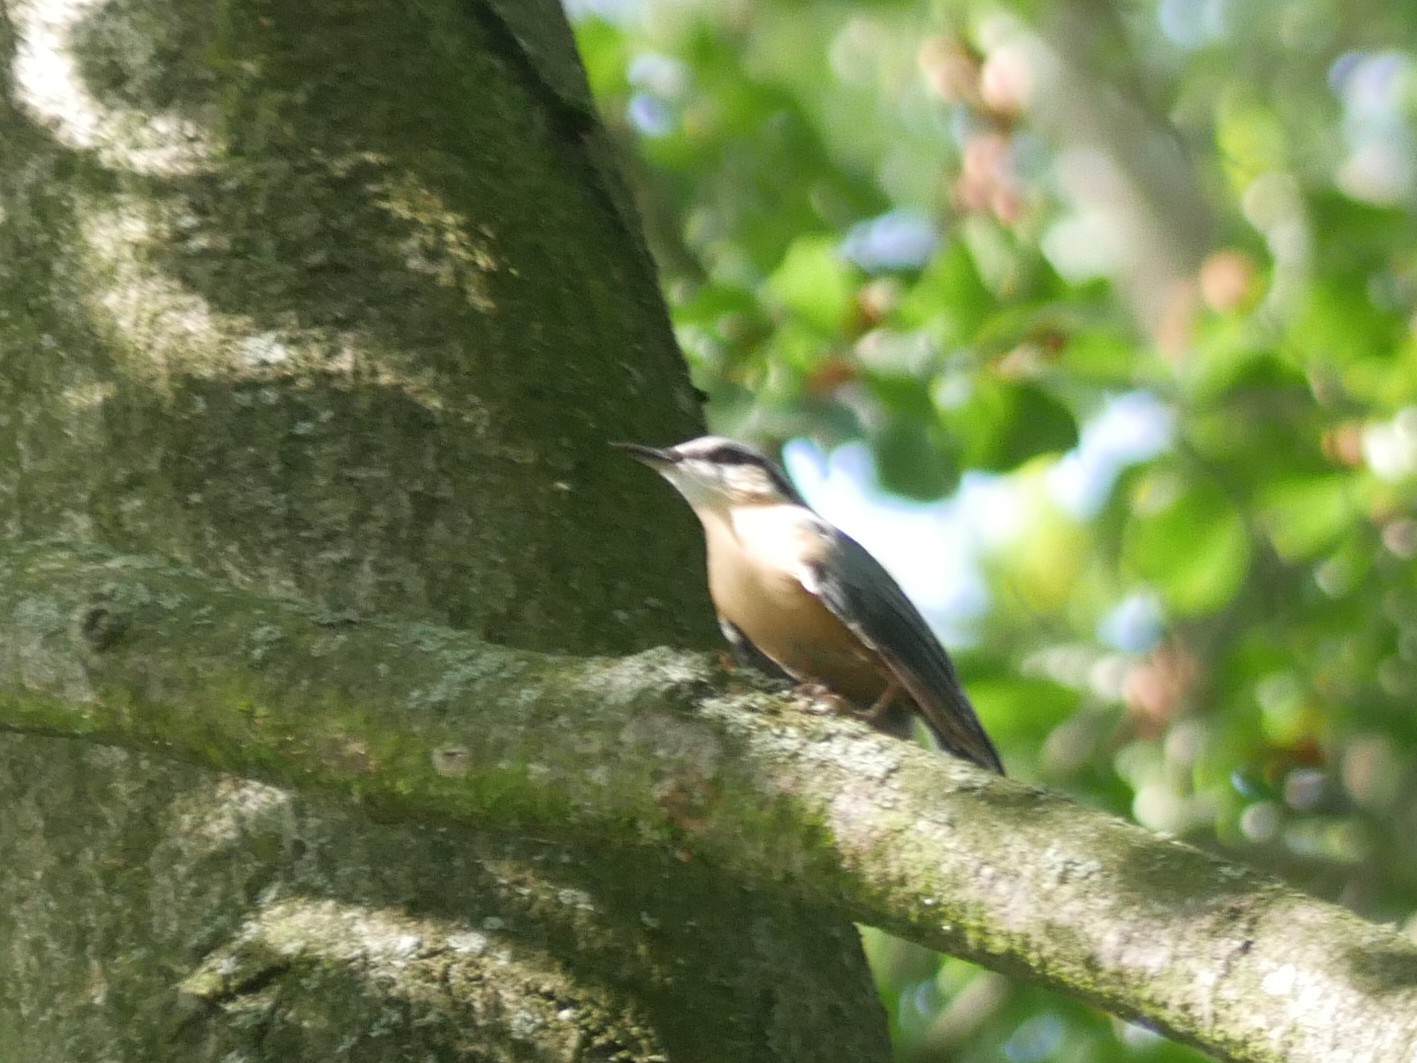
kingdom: Animalia
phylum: Chordata
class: Aves
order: Passeriformes
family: Sittidae
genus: Sitta
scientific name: Sitta europaea
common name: Eurasian nuthatch
